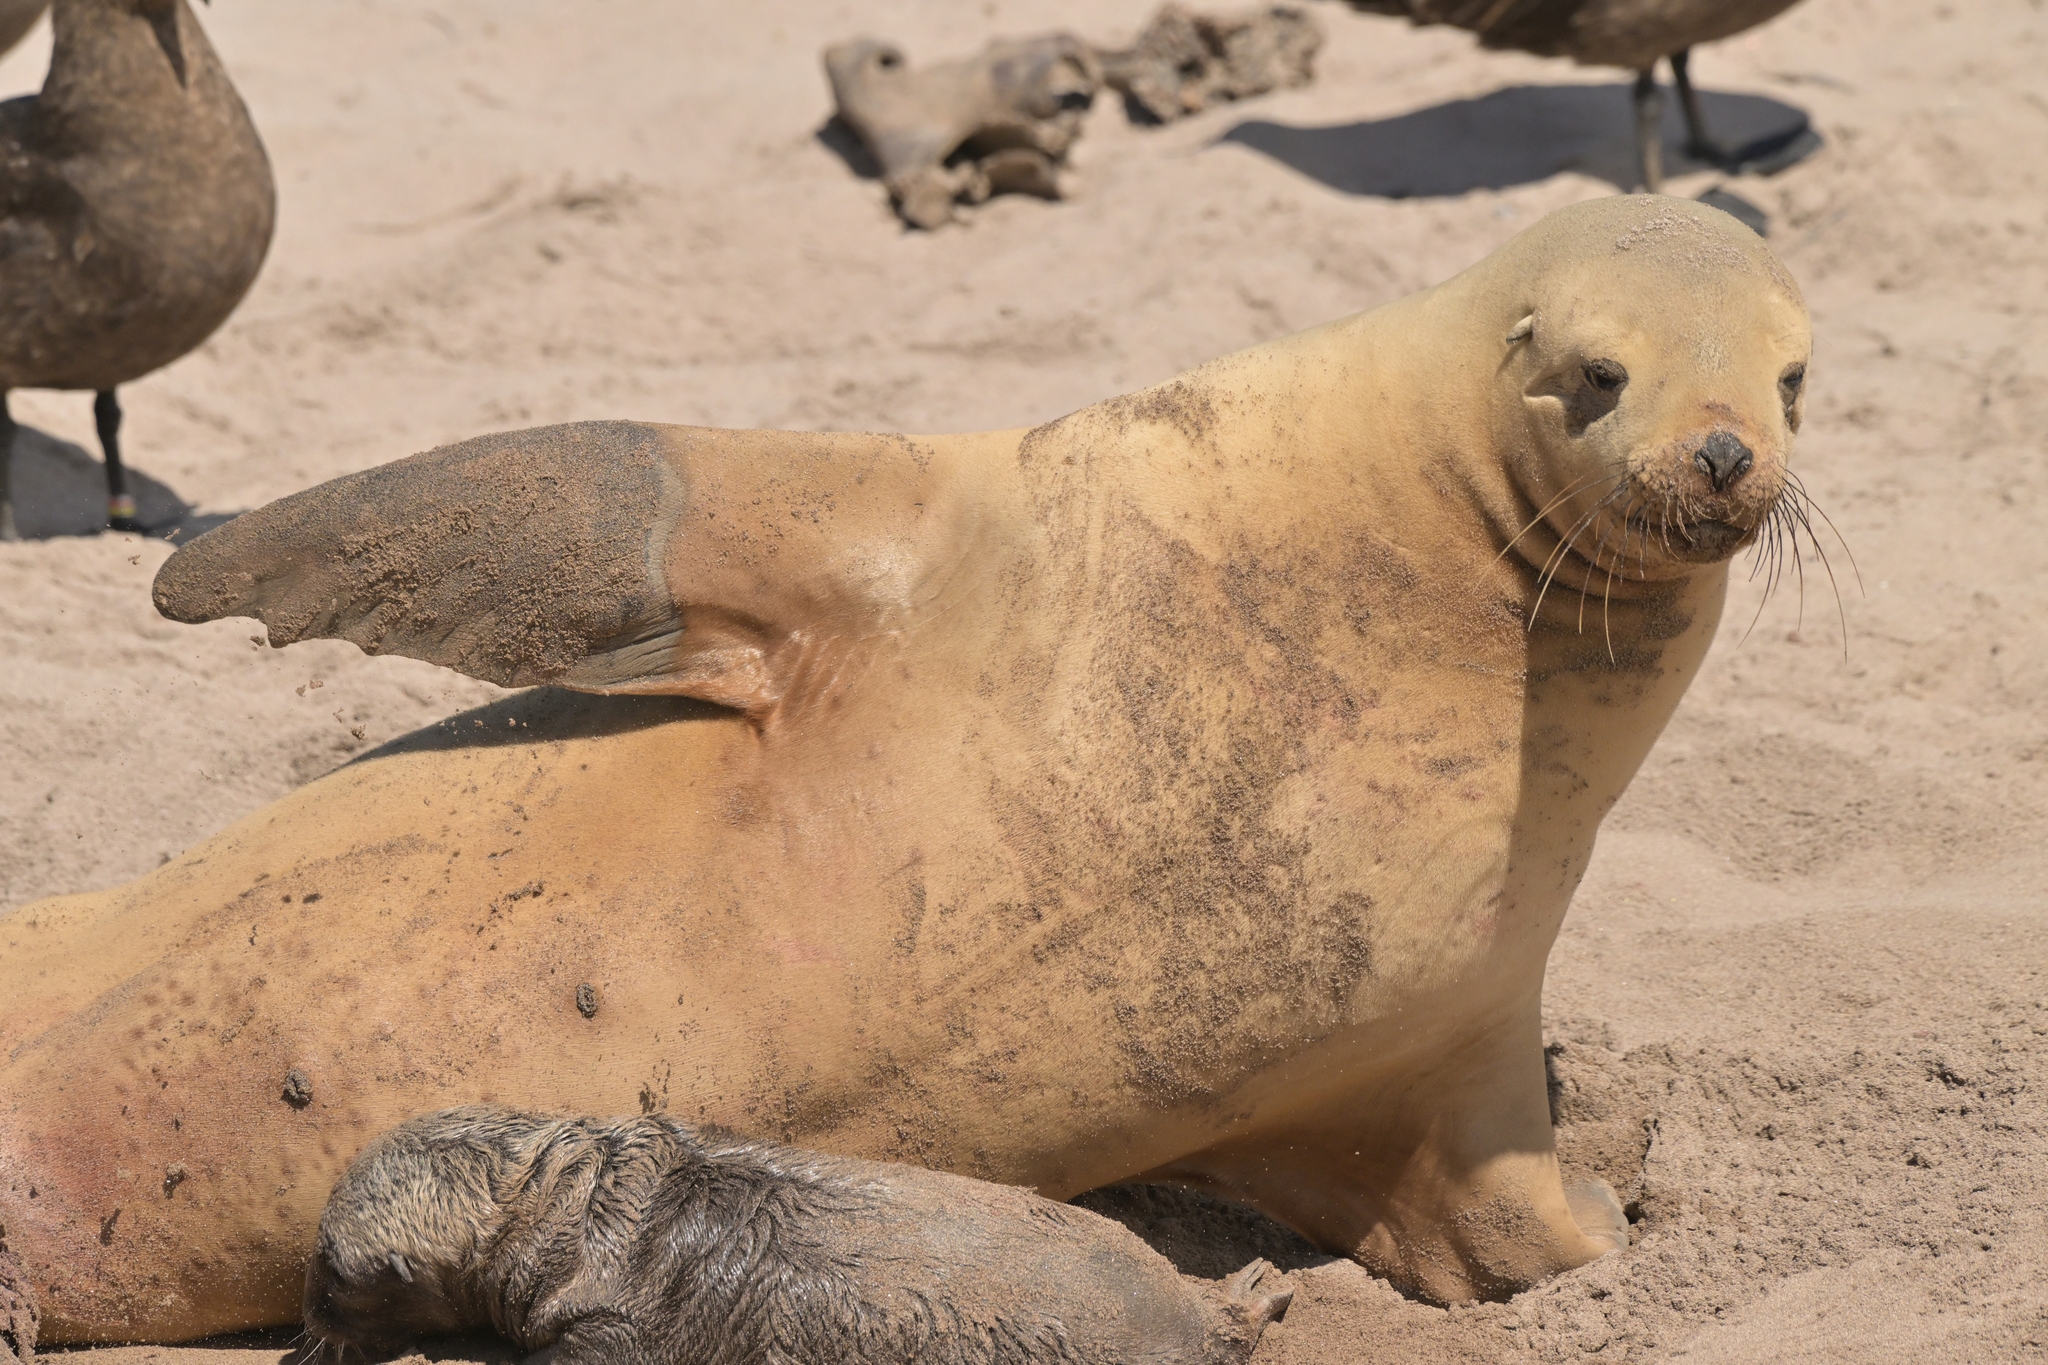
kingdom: Animalia
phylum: Chordata
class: Mammalia
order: Carnivora
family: Otariidae
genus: Phocarctos
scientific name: Phocarctos hookeri
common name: New zealand sea lion
